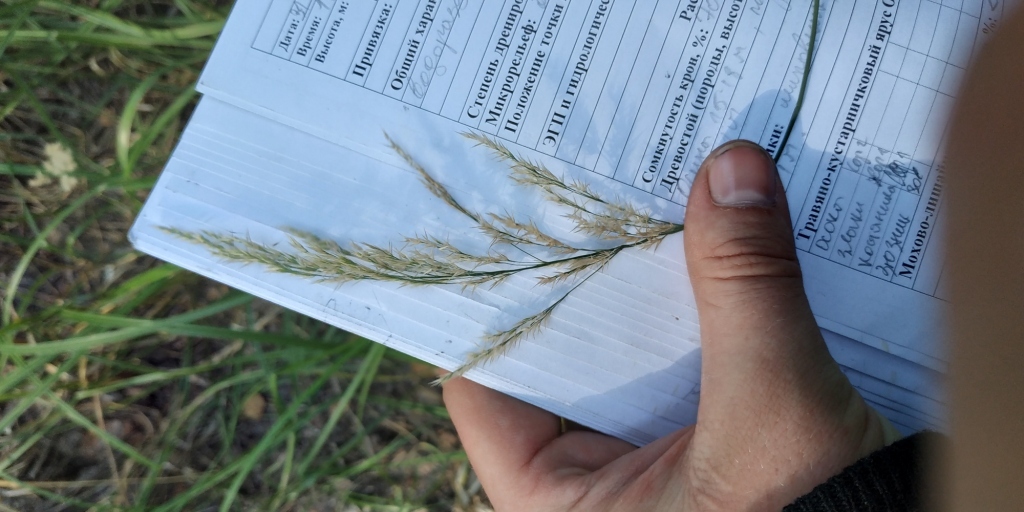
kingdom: Plantae
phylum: Tracheophyta
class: Liliopsida
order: Poales
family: Poaceae
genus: Calamagrostis
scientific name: Calamagrostis arundinacea
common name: Metskastik
